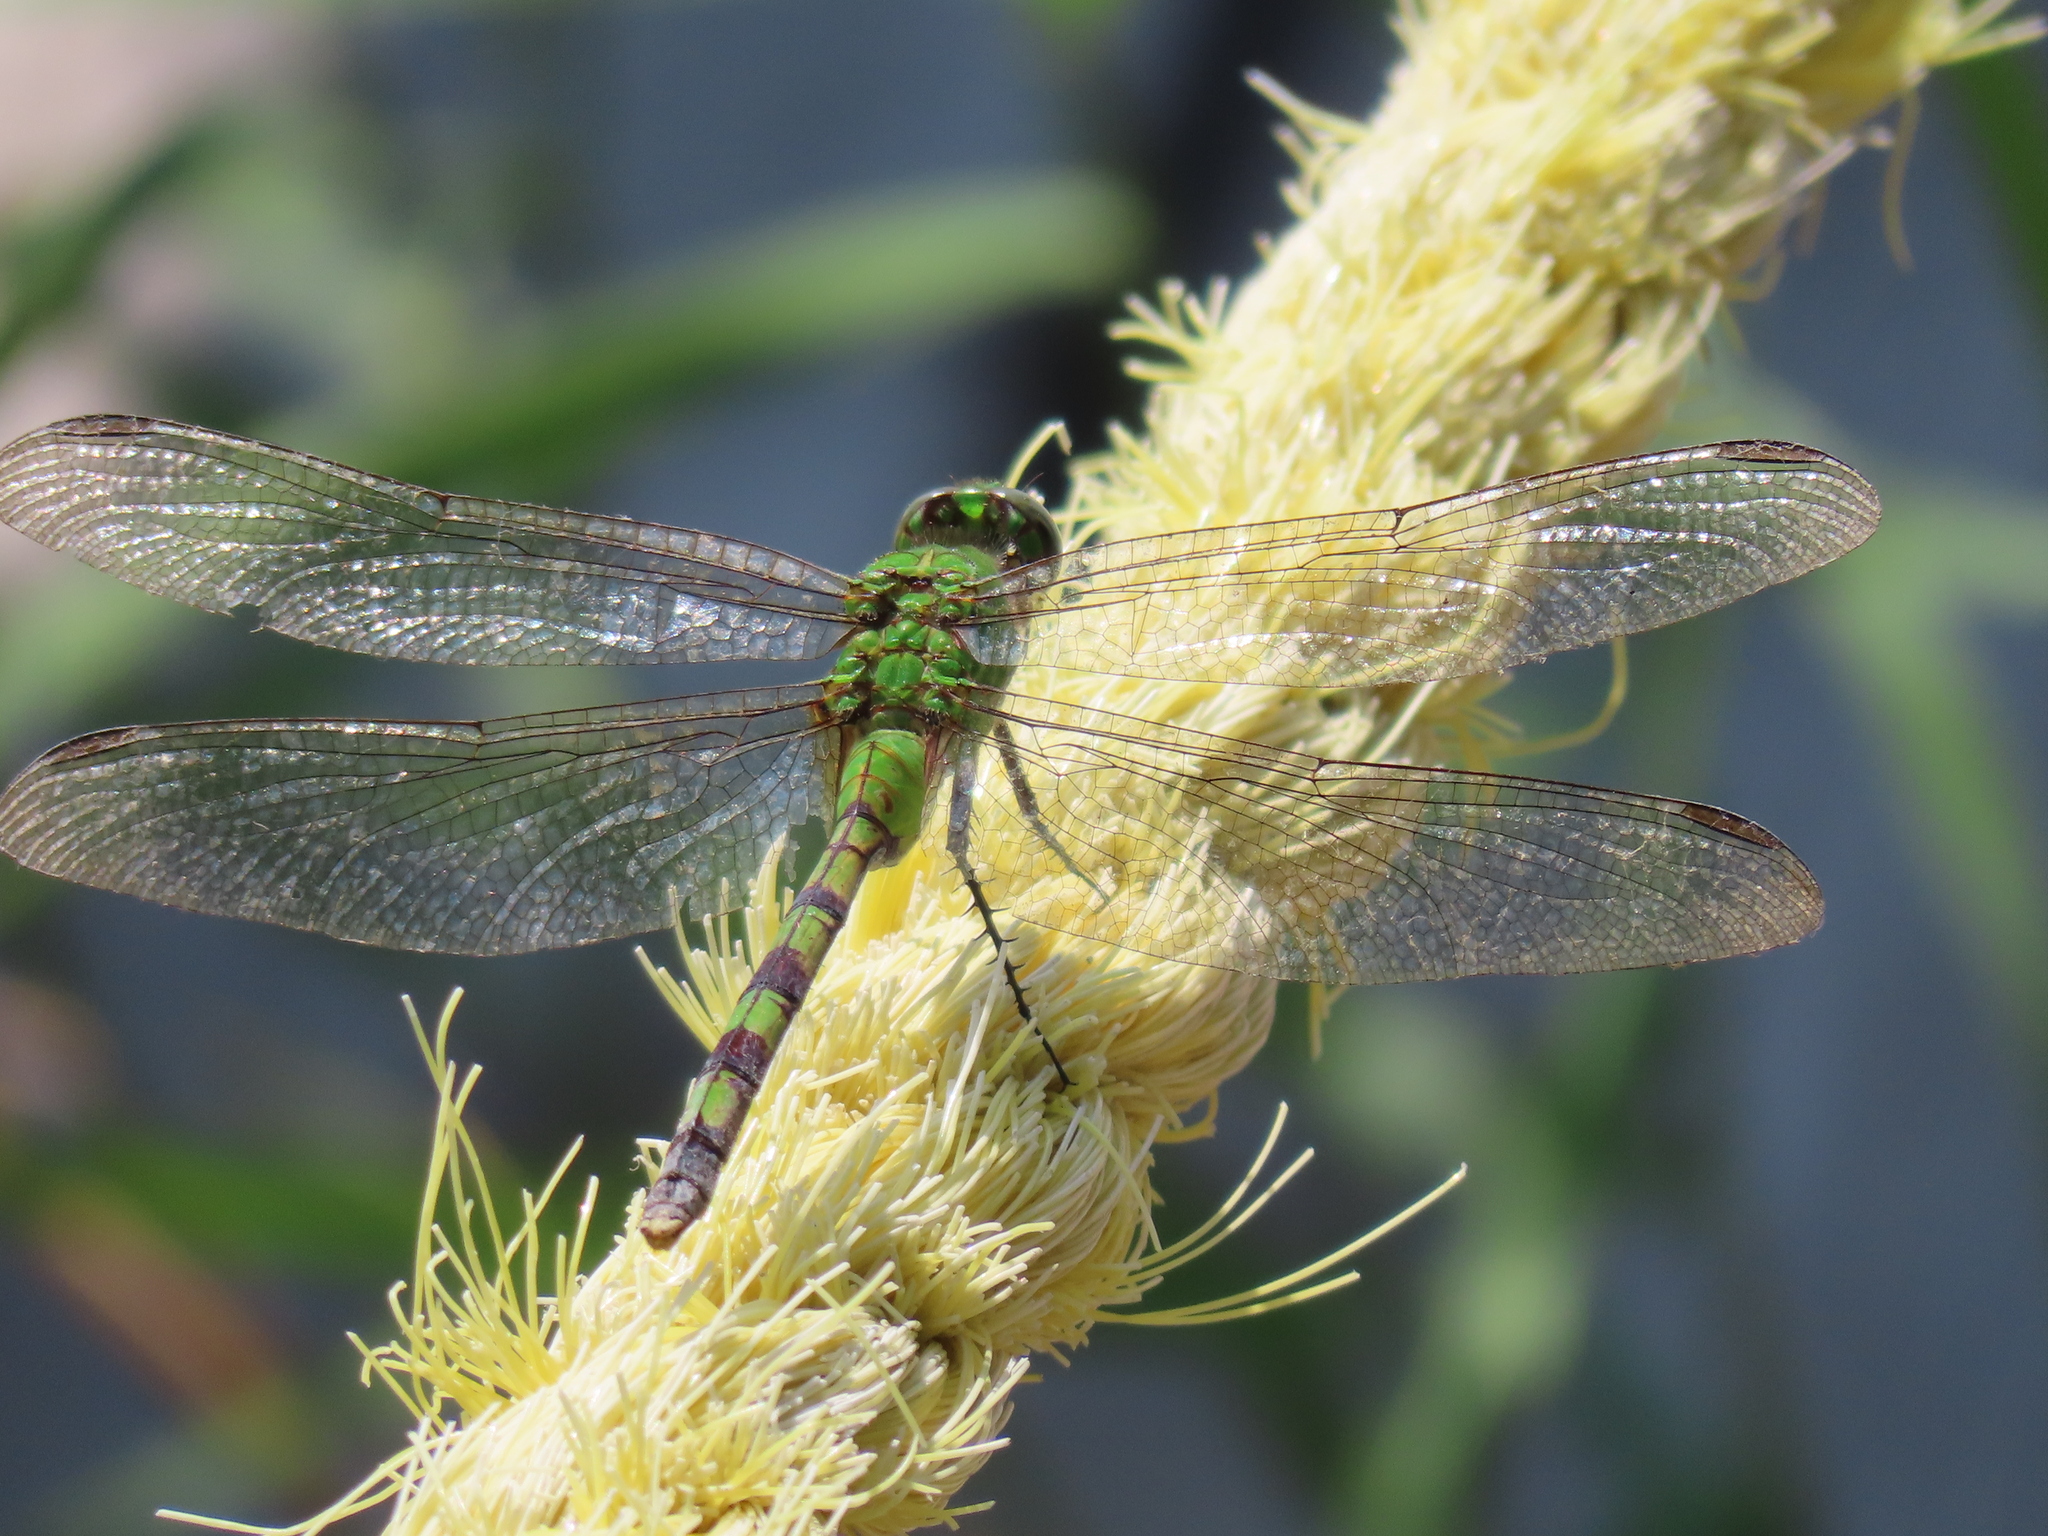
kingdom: Animalia
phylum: Arthropoda
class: Insecta
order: Odonata
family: Libellulidae
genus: Erythemis
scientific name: Erythemis vesiculosa
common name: Great pondhawk
